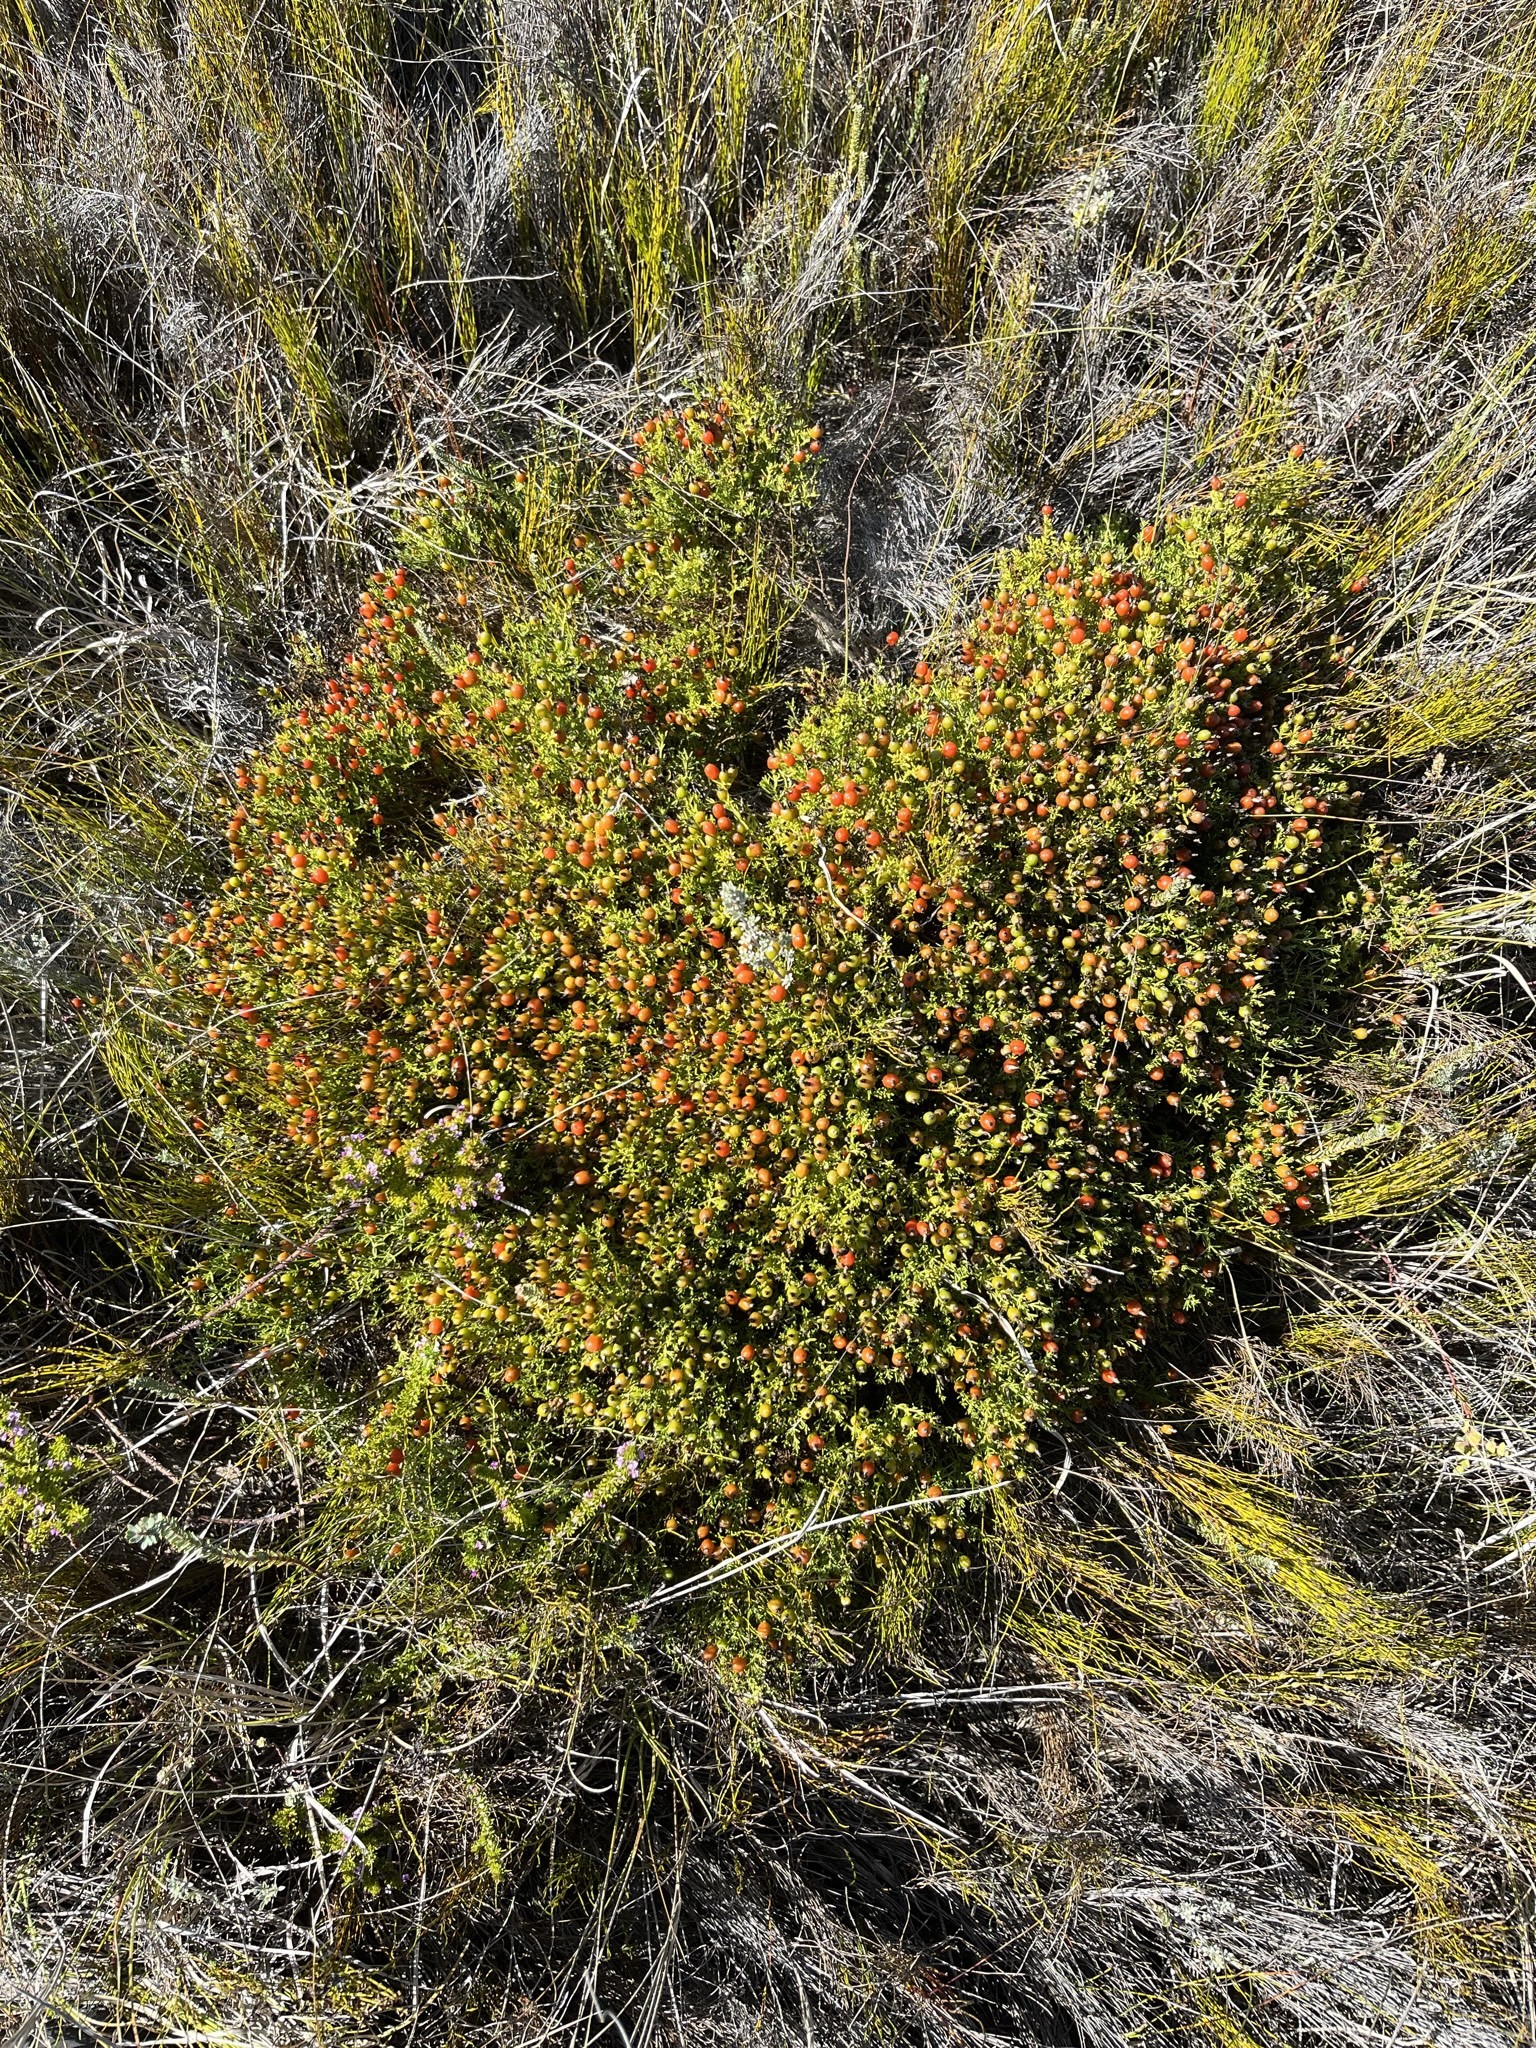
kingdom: Plantae
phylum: Tracheophyta
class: Magnoliopsida
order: Gentianales
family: Gentianaceae
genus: Chironia
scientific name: Chironia baccifera
